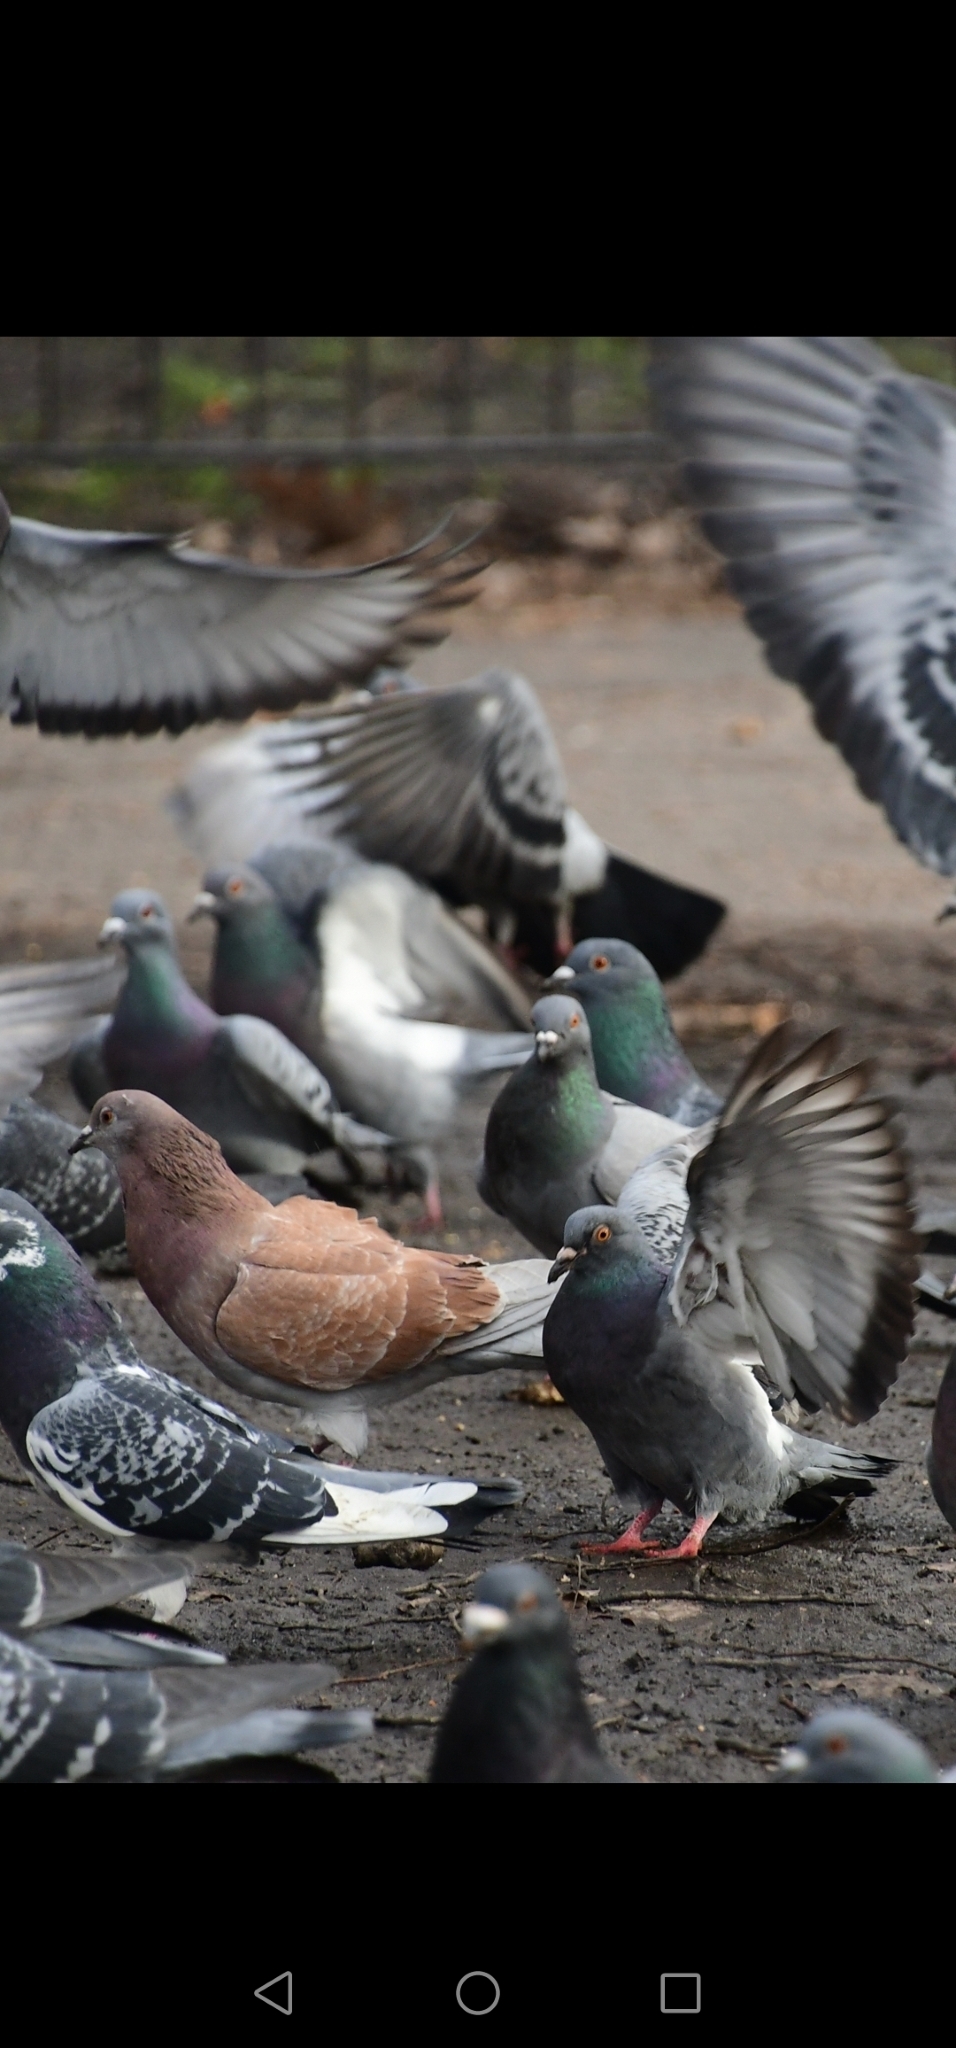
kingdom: Animalia
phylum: Chordata
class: Aves
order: Columbiformes
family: Columbidae
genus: Columba
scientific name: Columba livia
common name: Rock pigeon
